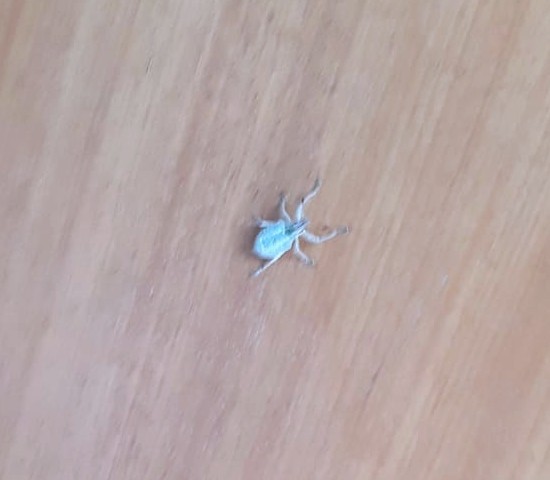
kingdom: Animalia
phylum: Arthropoda
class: Insecta
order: Coleoptera
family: Curculionidae
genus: Cyrtomon
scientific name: Cyrtomon gibber
